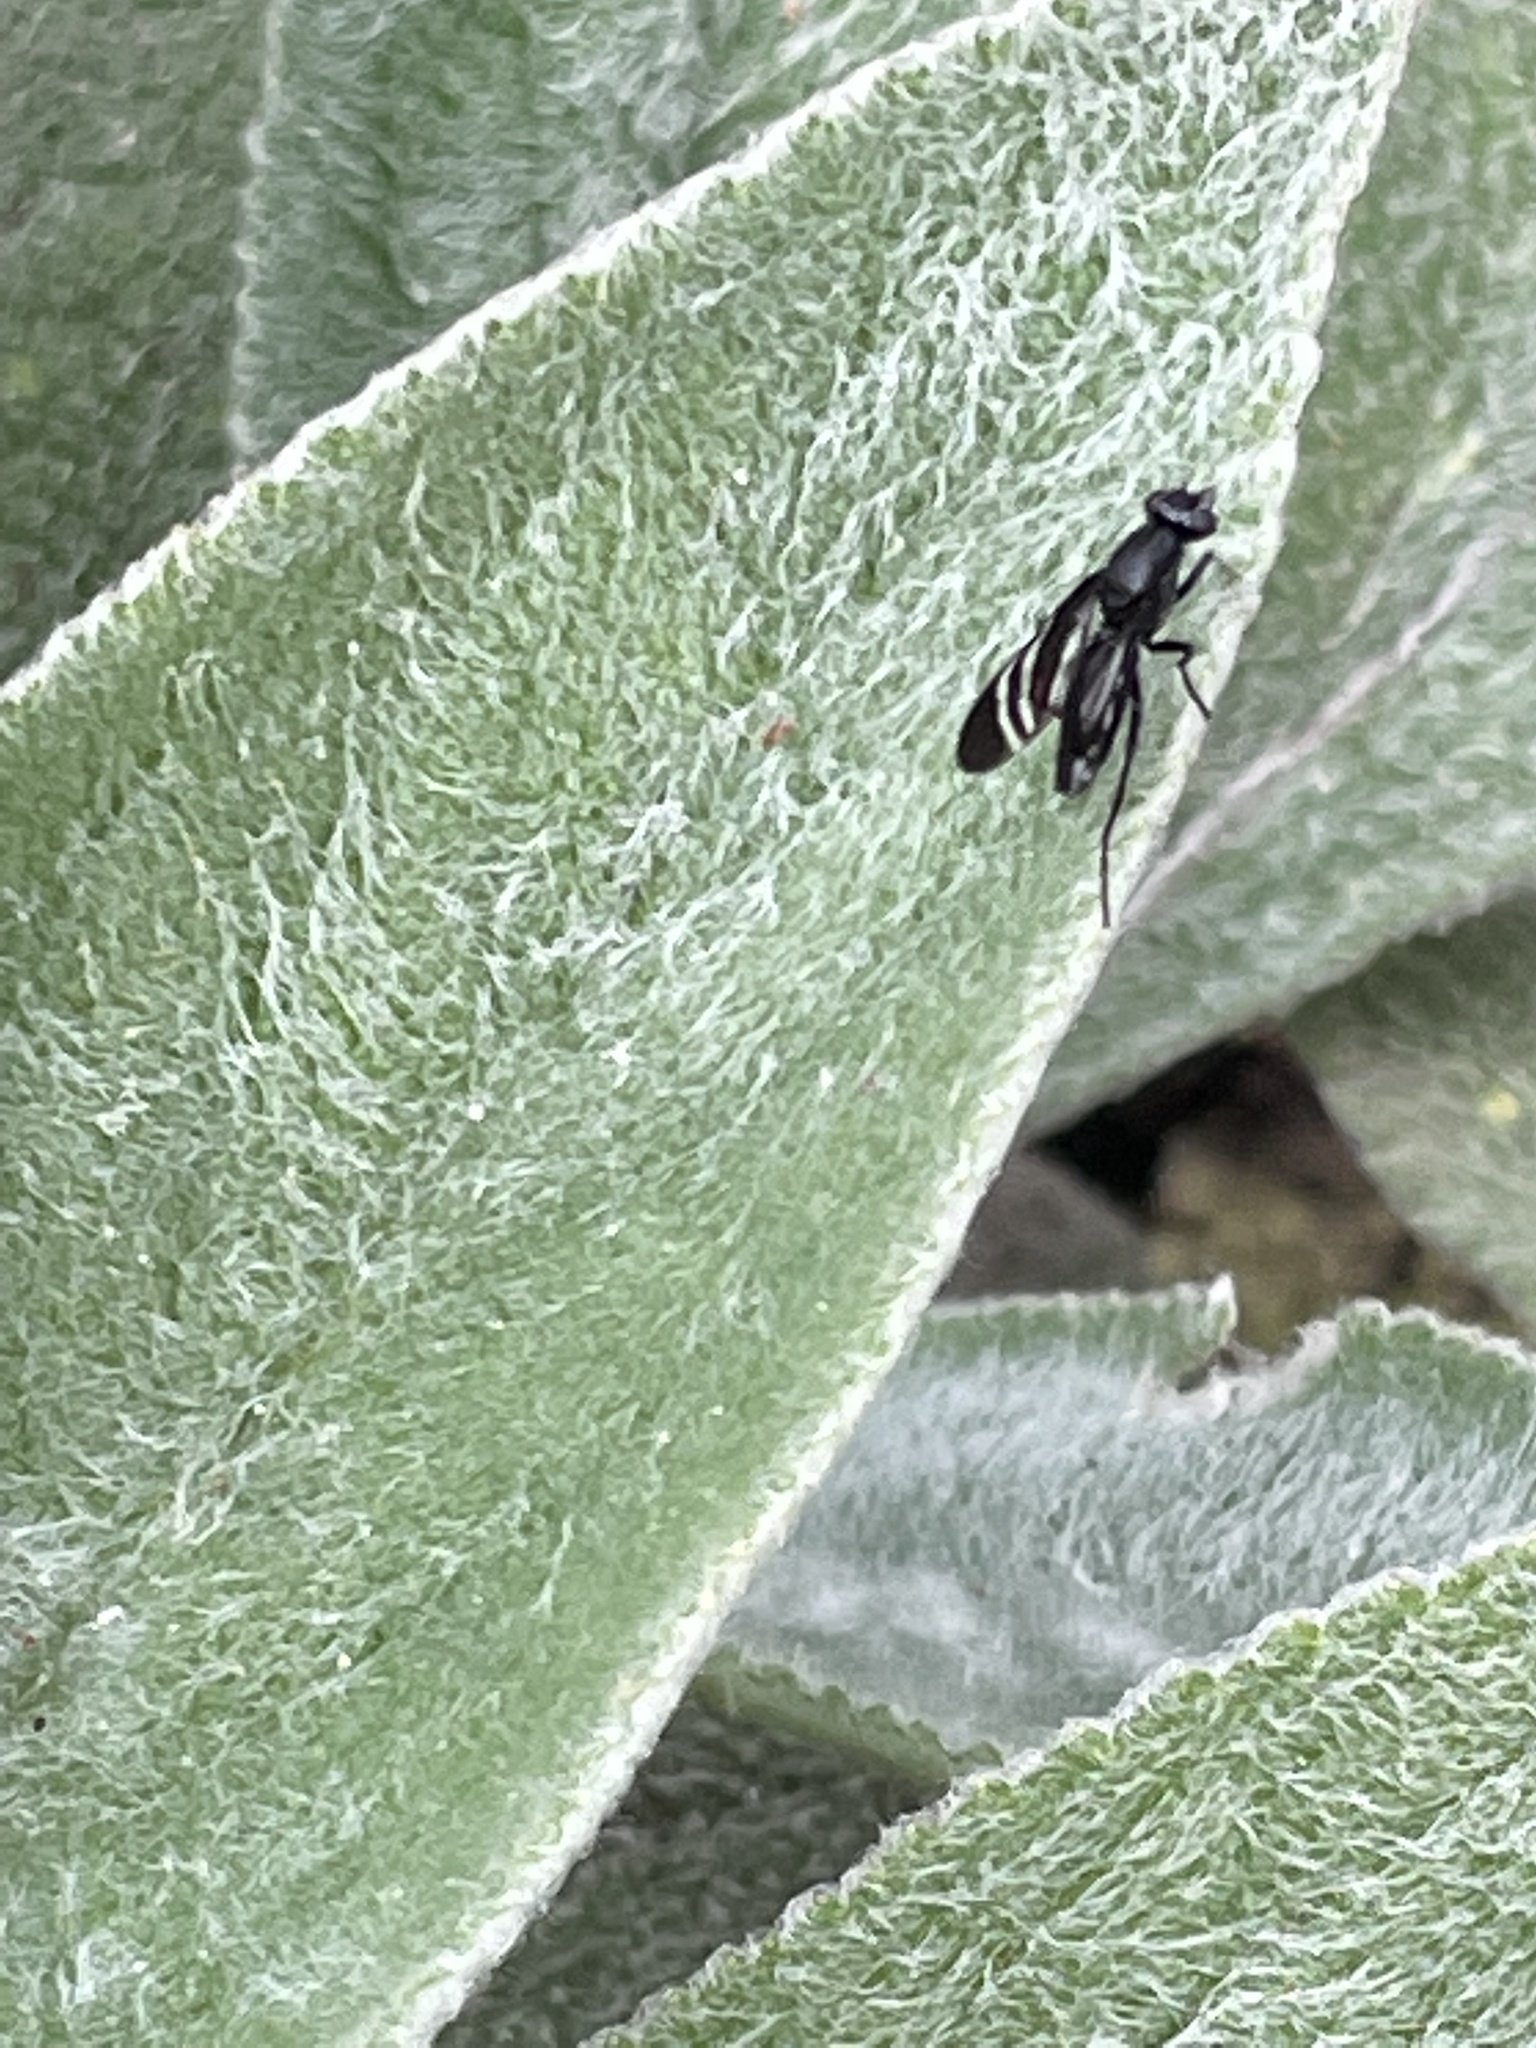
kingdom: Animalia
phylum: Arthropoda
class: Insecta
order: Diptera
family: Ulidiidae
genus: Tritoxa
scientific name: Tritoxa flexa
